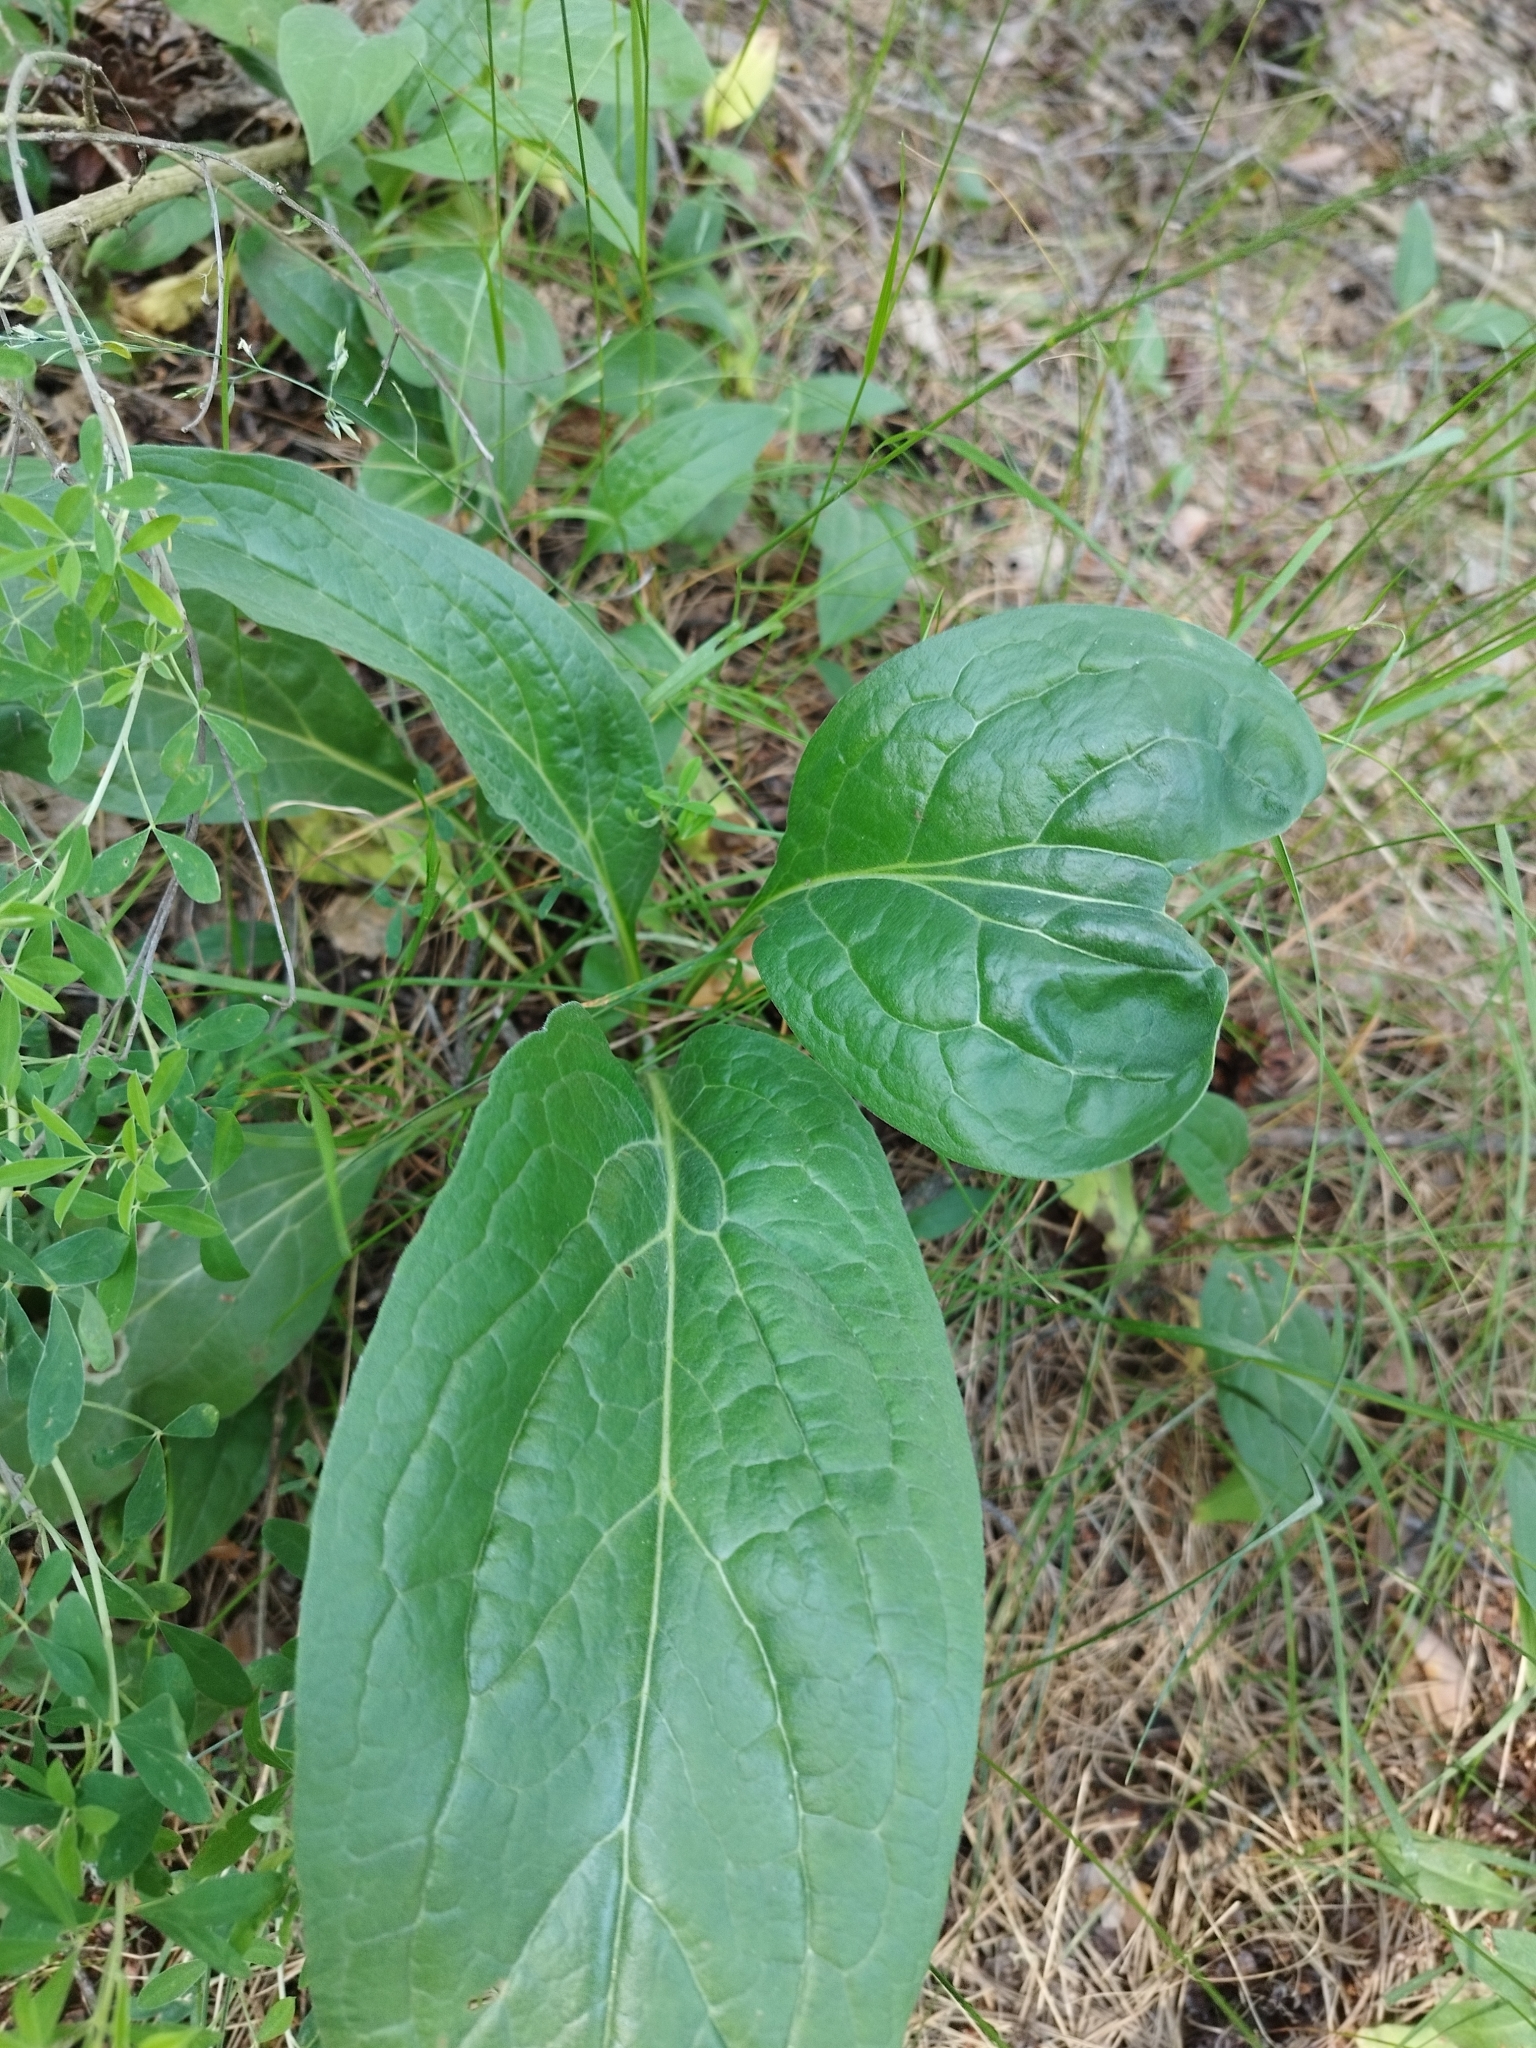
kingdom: Plantae
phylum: Tracheophyta
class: Magnoliopsida
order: Boraginales
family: Boraginaceae
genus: Cynoglossum
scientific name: Cynoglossum officinale
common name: Hound's-tongue
